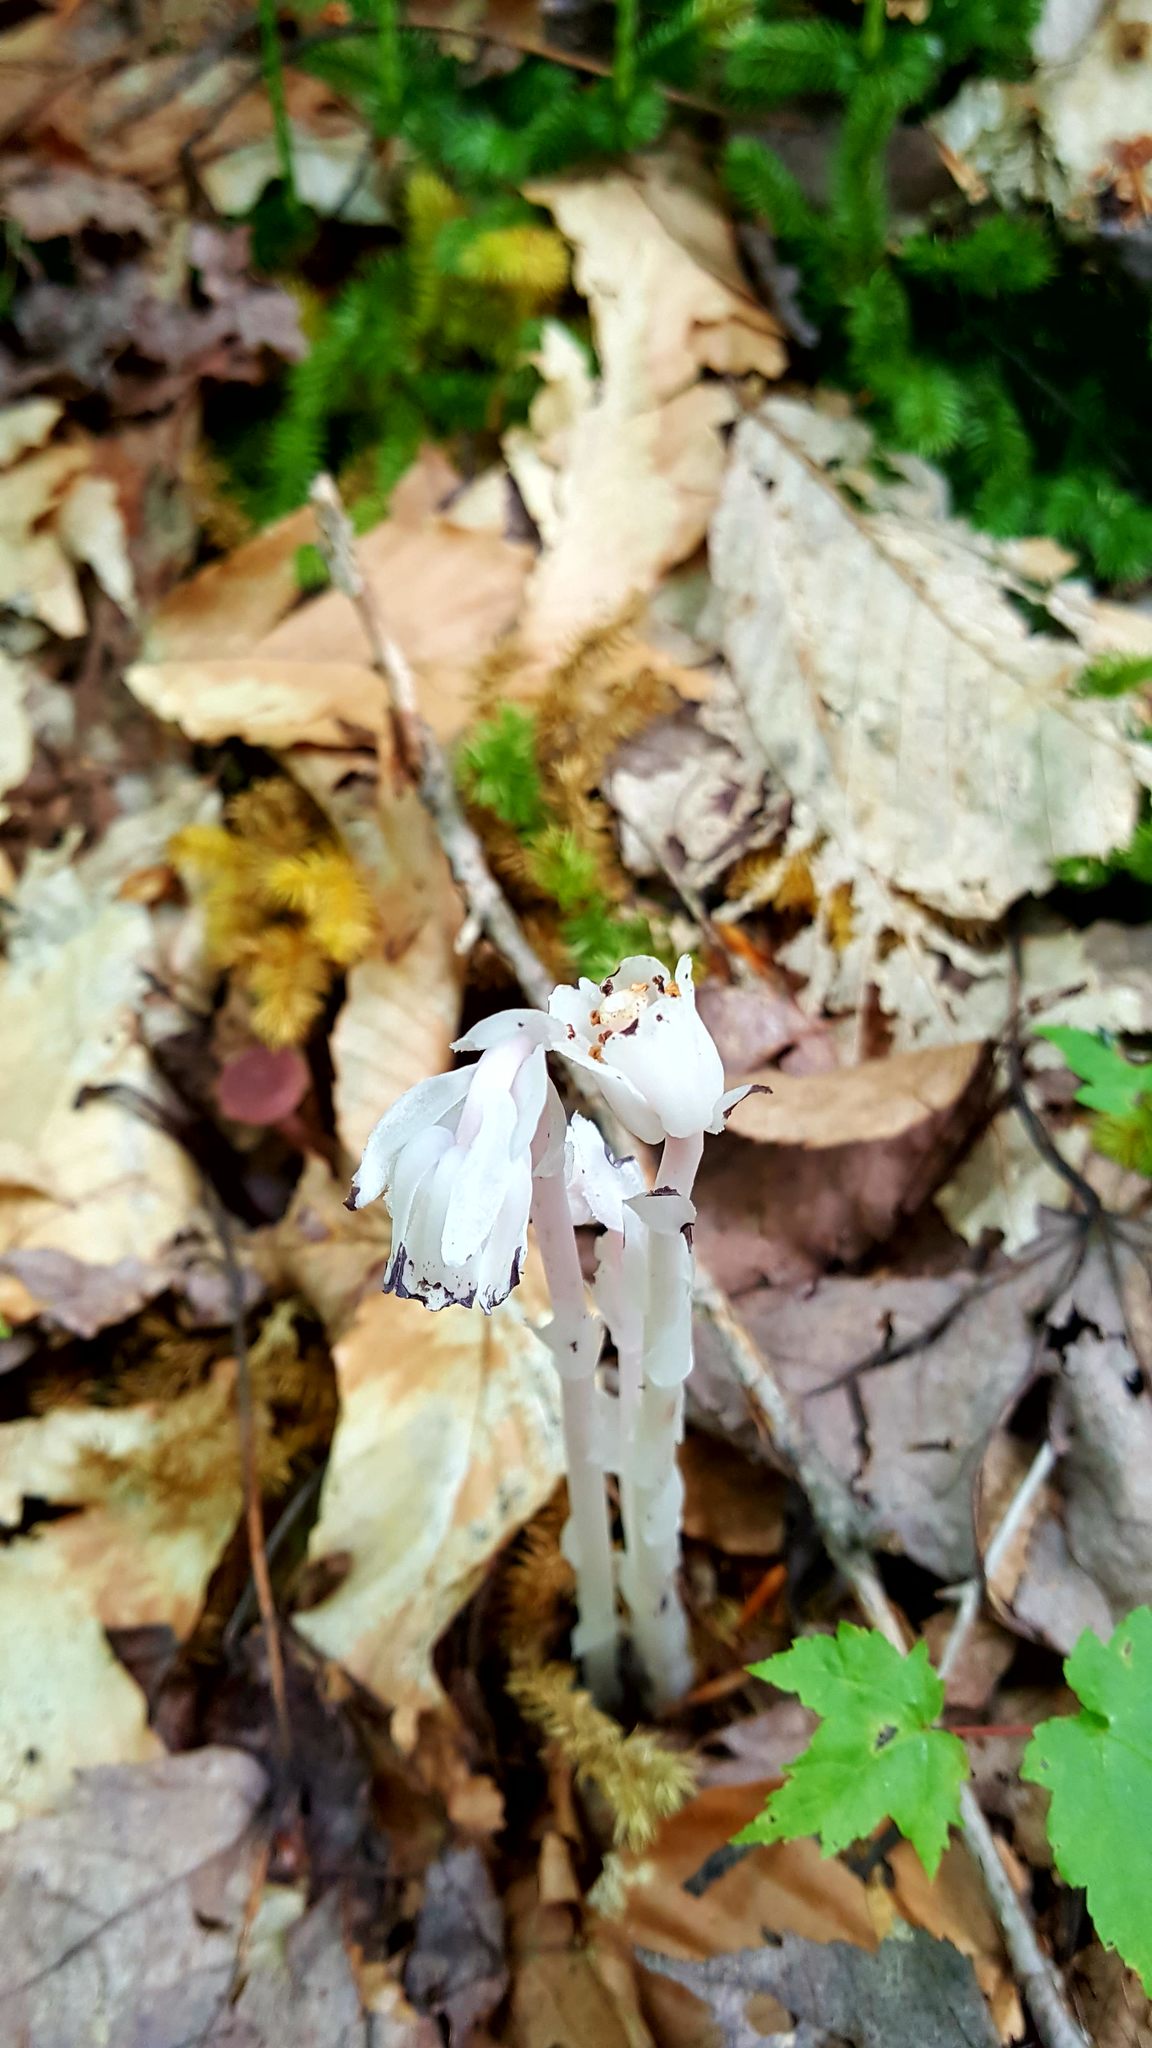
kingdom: Plantae
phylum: Tracheophyta
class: Magnoliopsida
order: Ericales
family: Ericaceae
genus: Monotropa
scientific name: Monotropa uniflora
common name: Convulsion root
